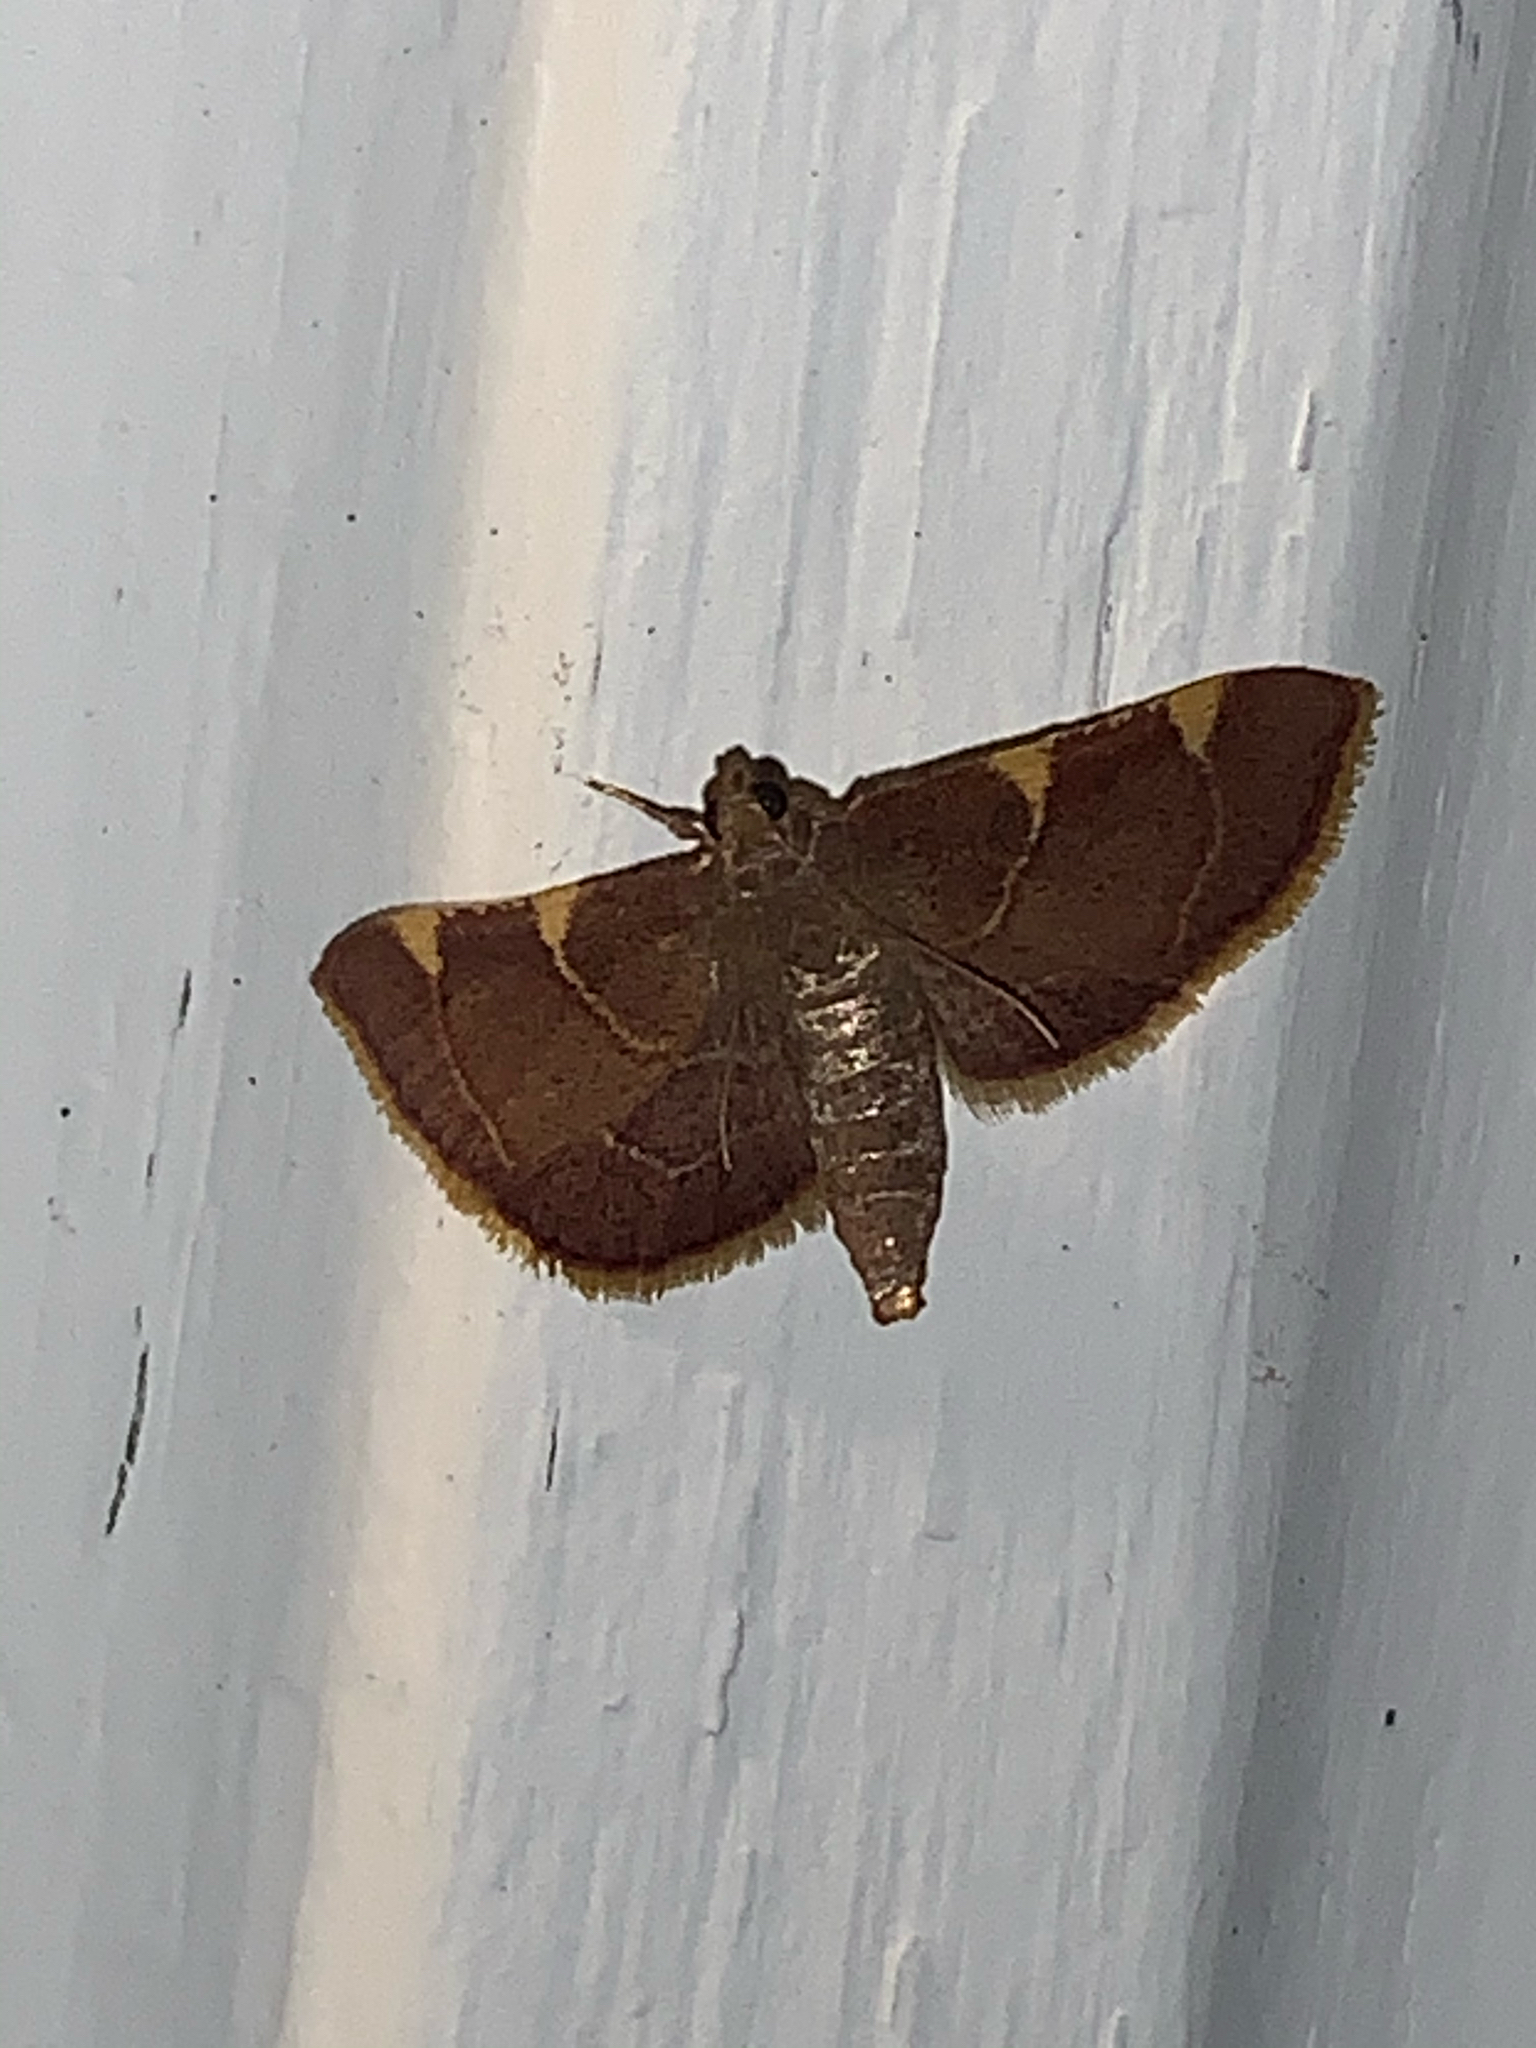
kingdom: Animalia
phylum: Arthropoda
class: Insecta
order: Lepidoptera
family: Pyralidae
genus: Hypsopygia
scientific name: Hypsopygia olinalis
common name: Yellow-fringed dolichomia moth
